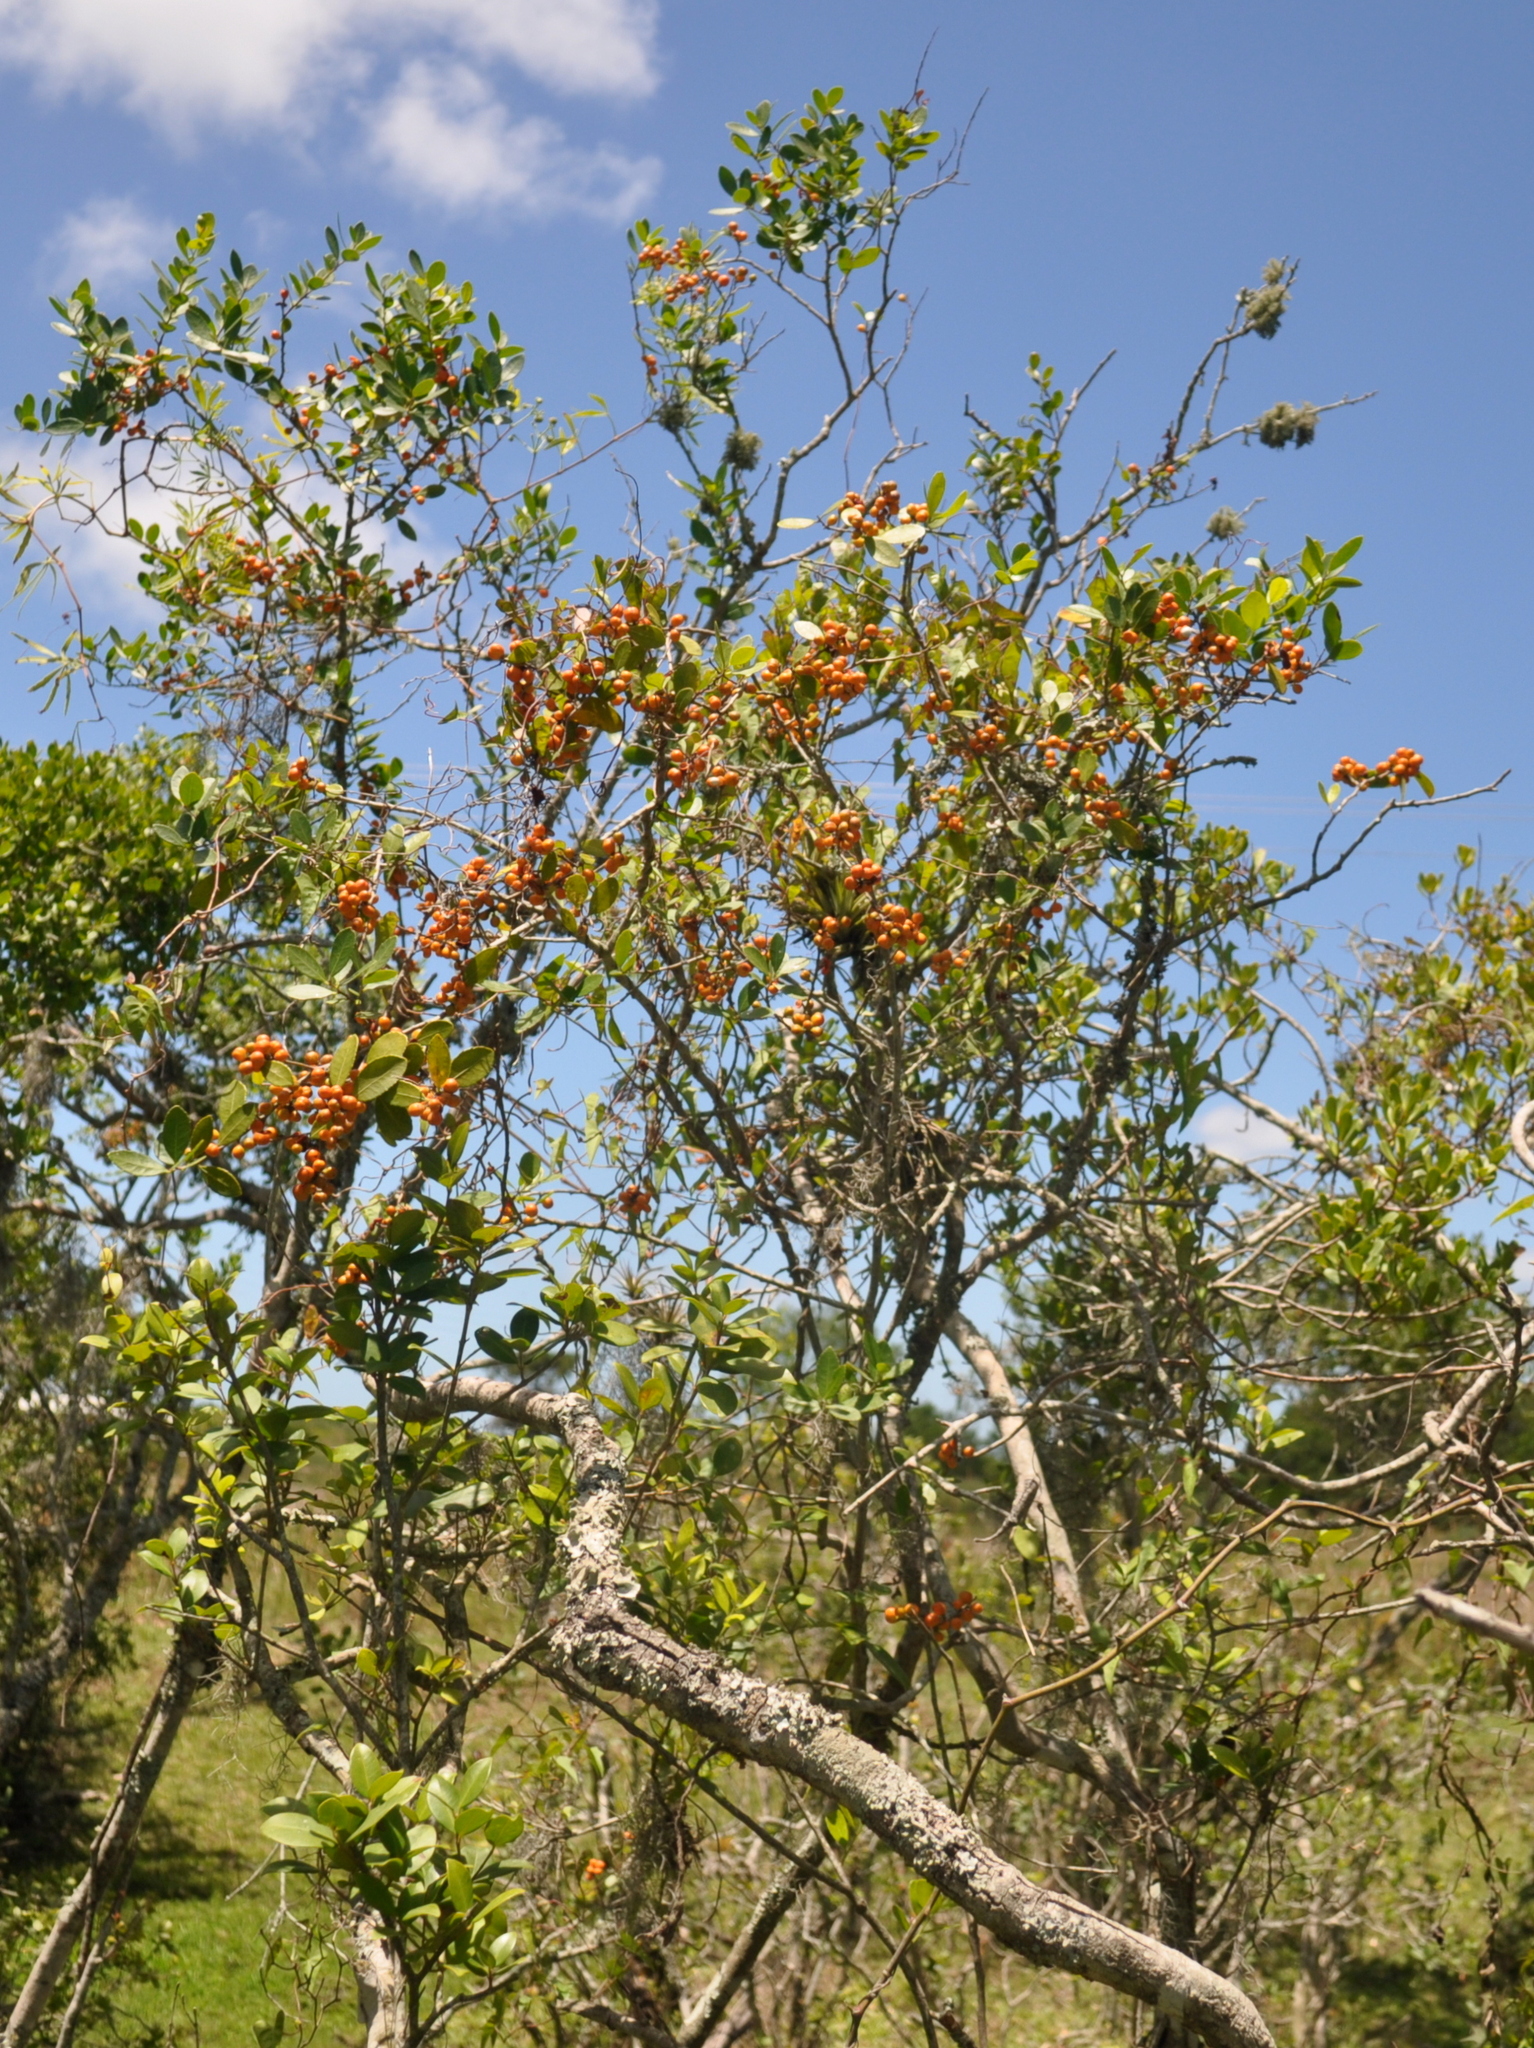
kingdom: Plantae
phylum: Tracheophyta
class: Magnoliopsida
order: Celastrales
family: Celastraceae
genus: Monteverdia
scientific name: Monteverdia dasyclados
